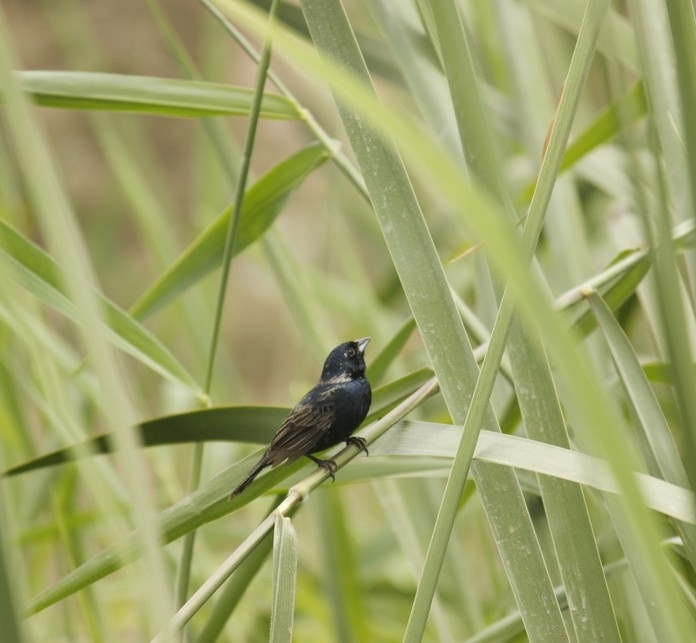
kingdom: Animalia
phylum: Chordata
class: Aves
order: Passeriformes
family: Thraupidae
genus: Volatinia
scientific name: Volatinia jacarina
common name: Blue-black grassquit
